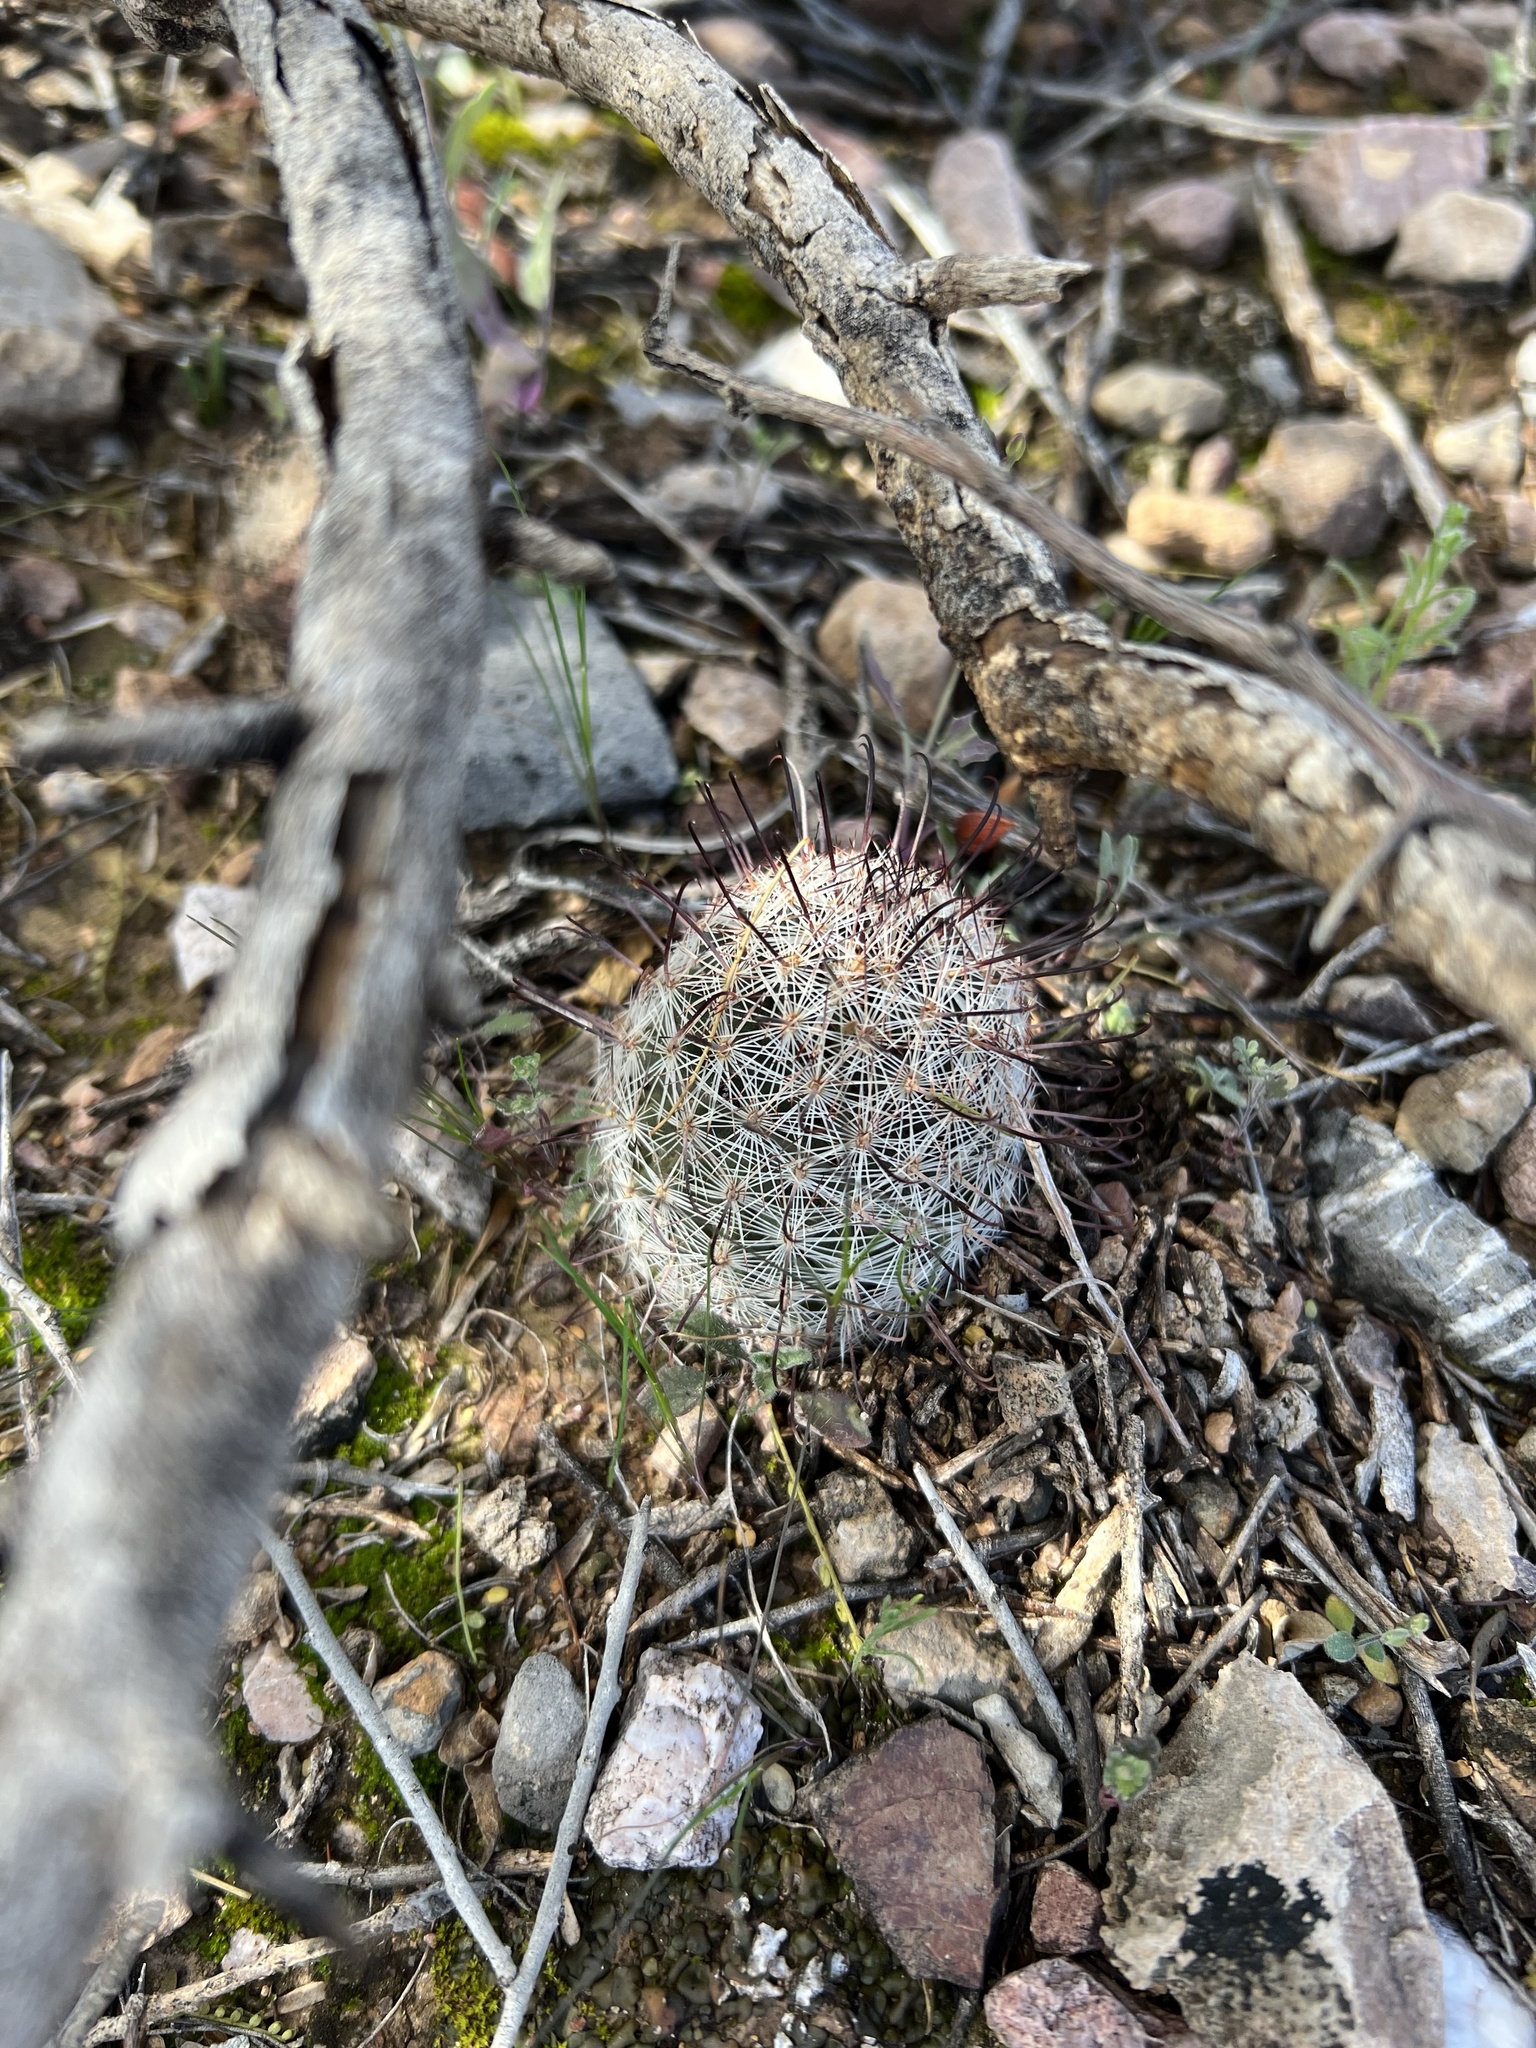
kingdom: Plantae
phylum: Tracheophyta
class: Magnoliopsida
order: Caryophyllales
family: Cactaceae
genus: Cochemiea
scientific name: Cochemiea grahamii
